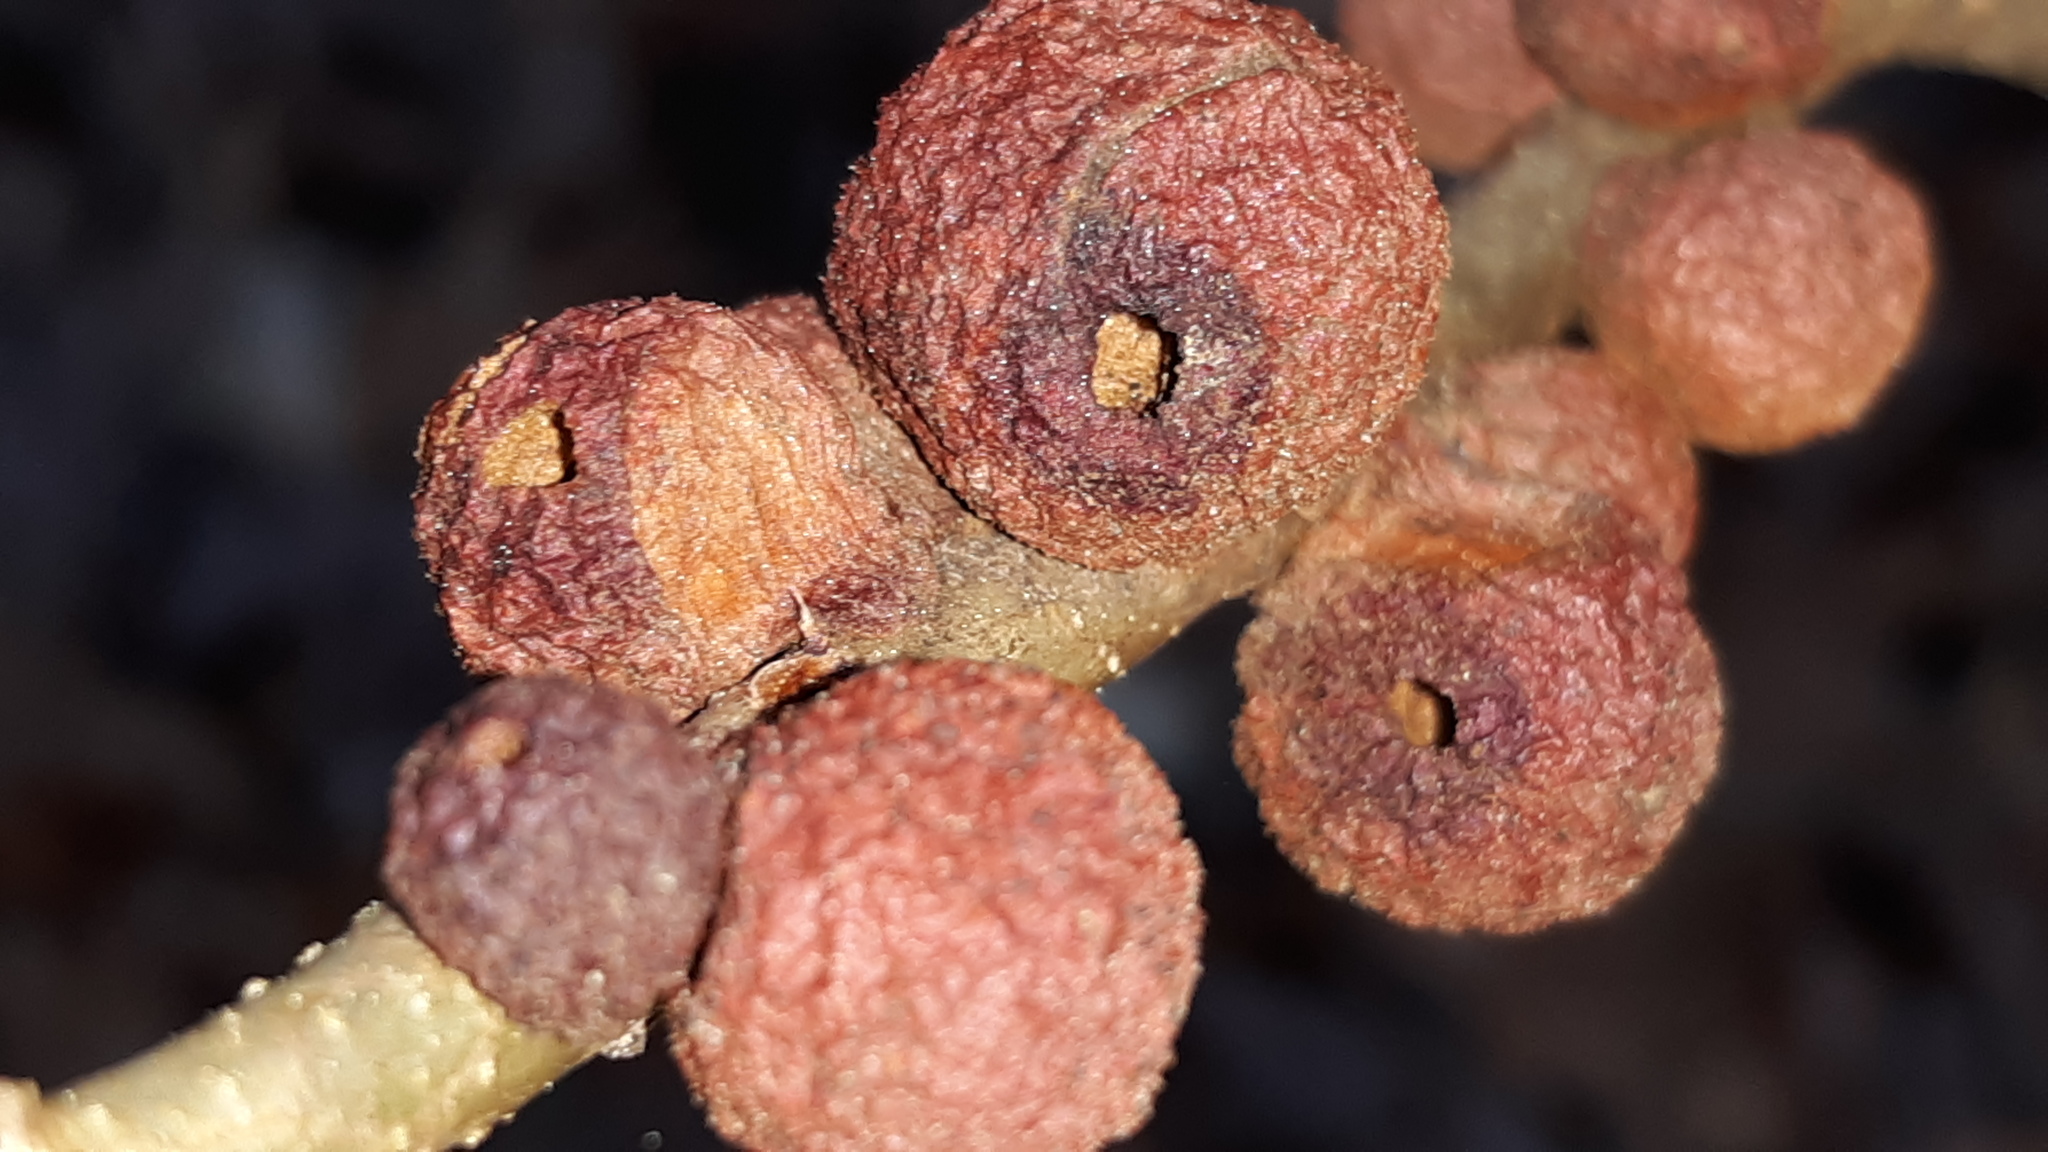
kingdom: Animalia
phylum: Arthropoda
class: Insecta
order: Hymenoptera
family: Cynipidae
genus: Disholcaspis
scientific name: Disholcaspis
